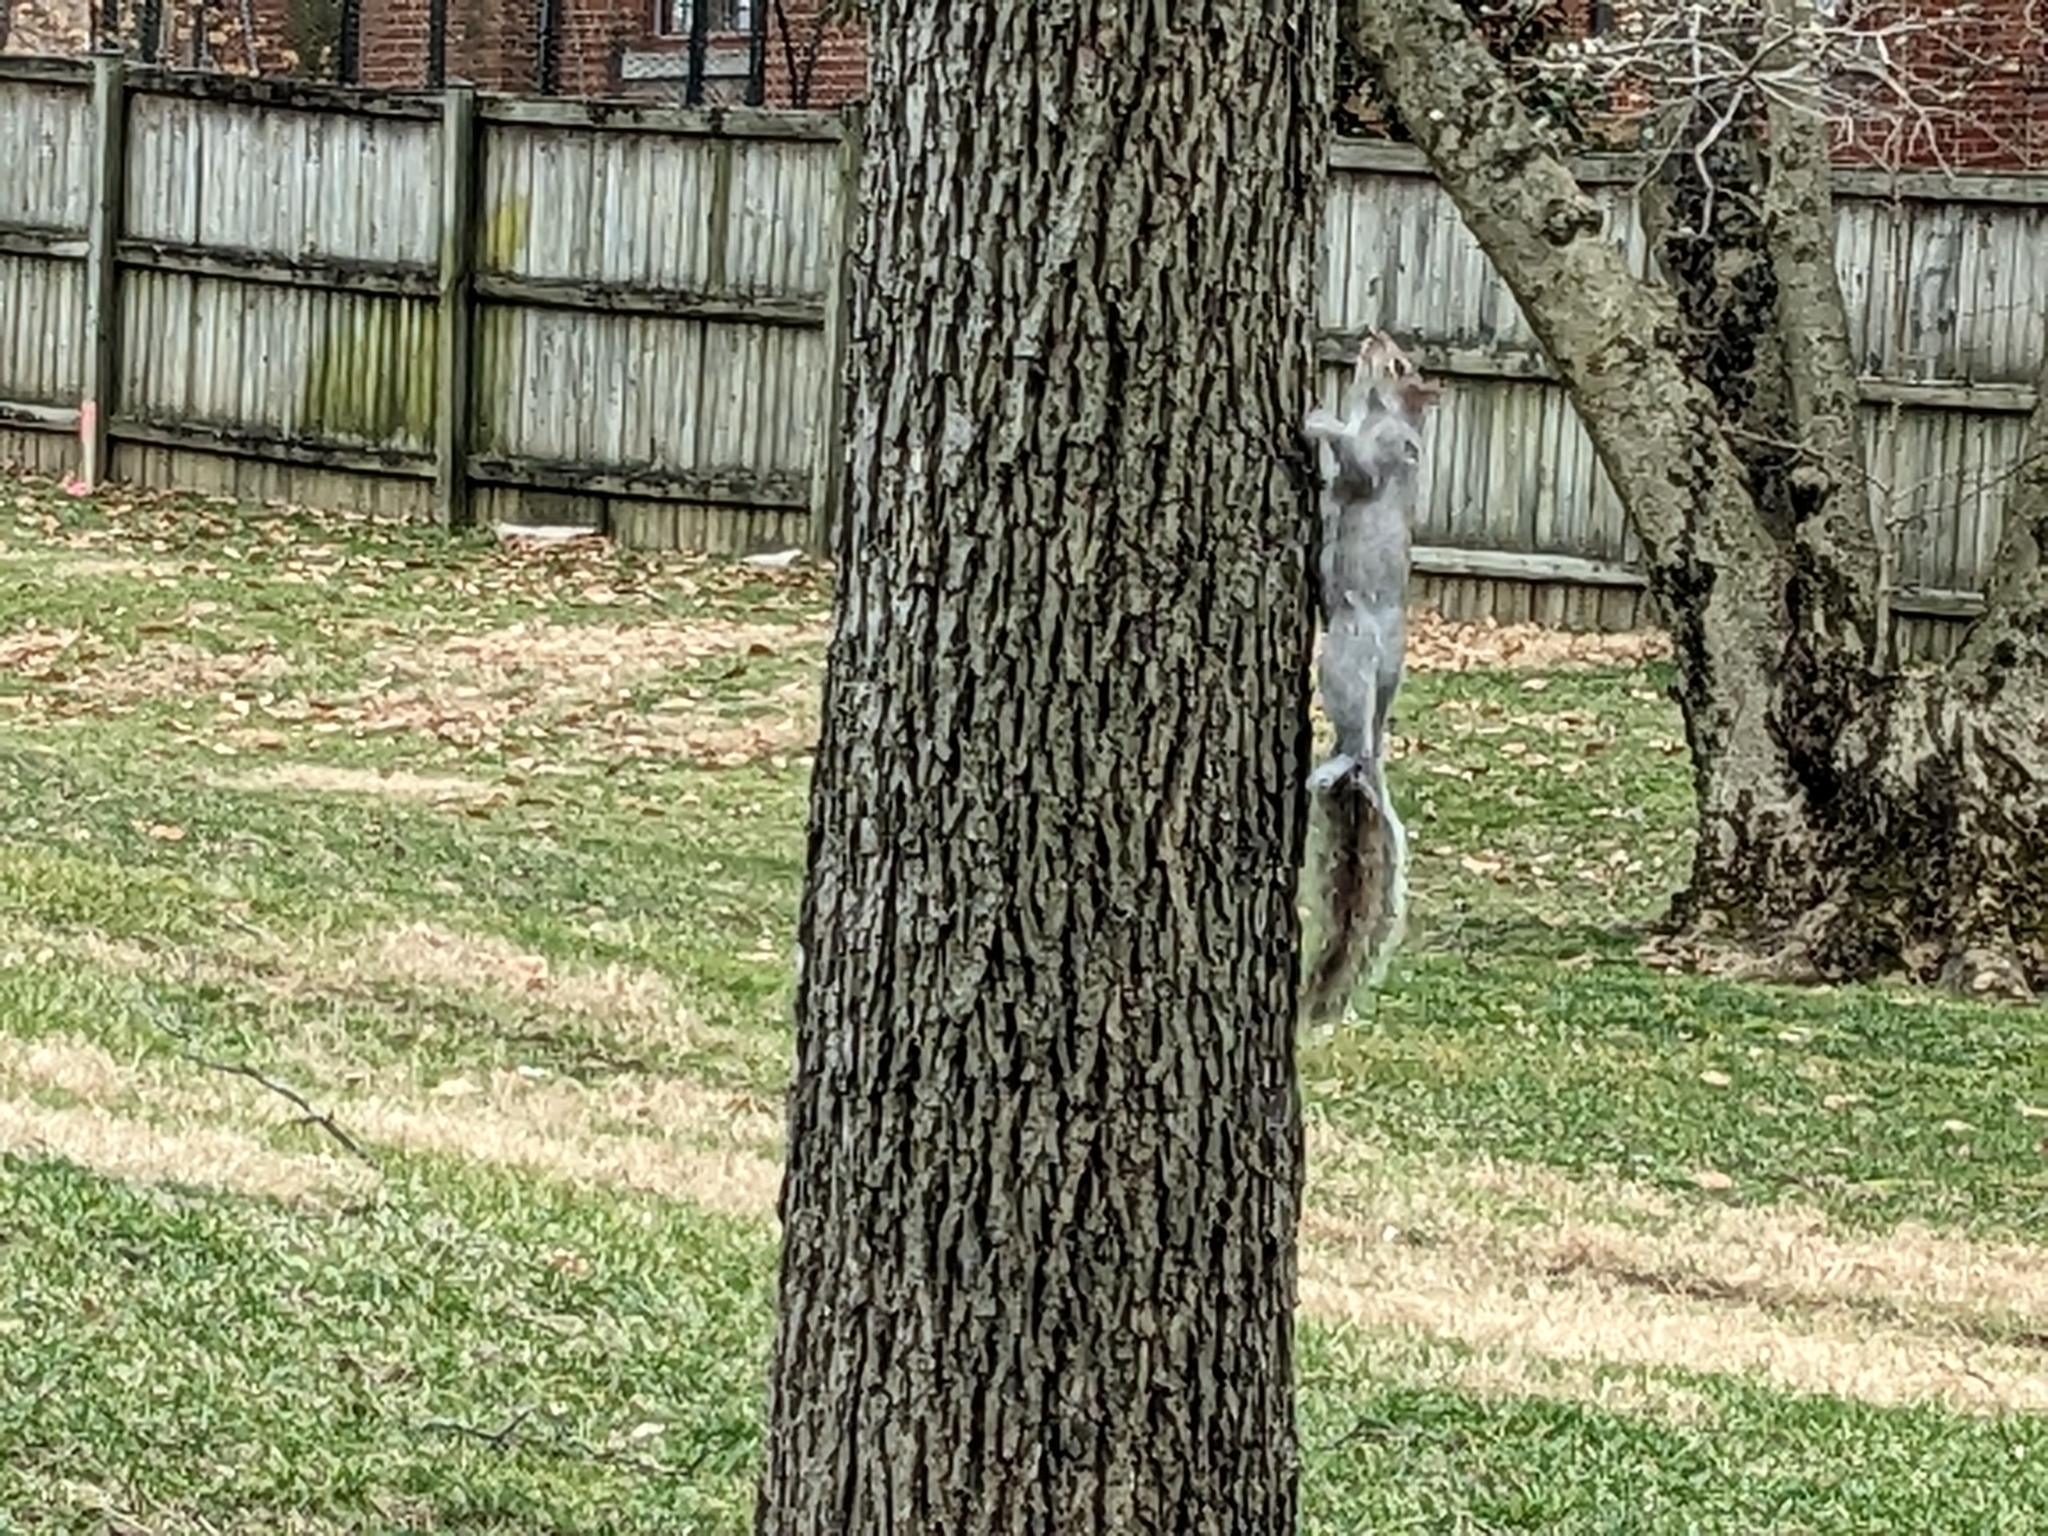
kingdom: Animalia
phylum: Chordata
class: Mammalia
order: Rodentia
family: Sciuridae
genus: Sciurus
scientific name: Sciurus carolinensis
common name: Eastern gray squirrel
